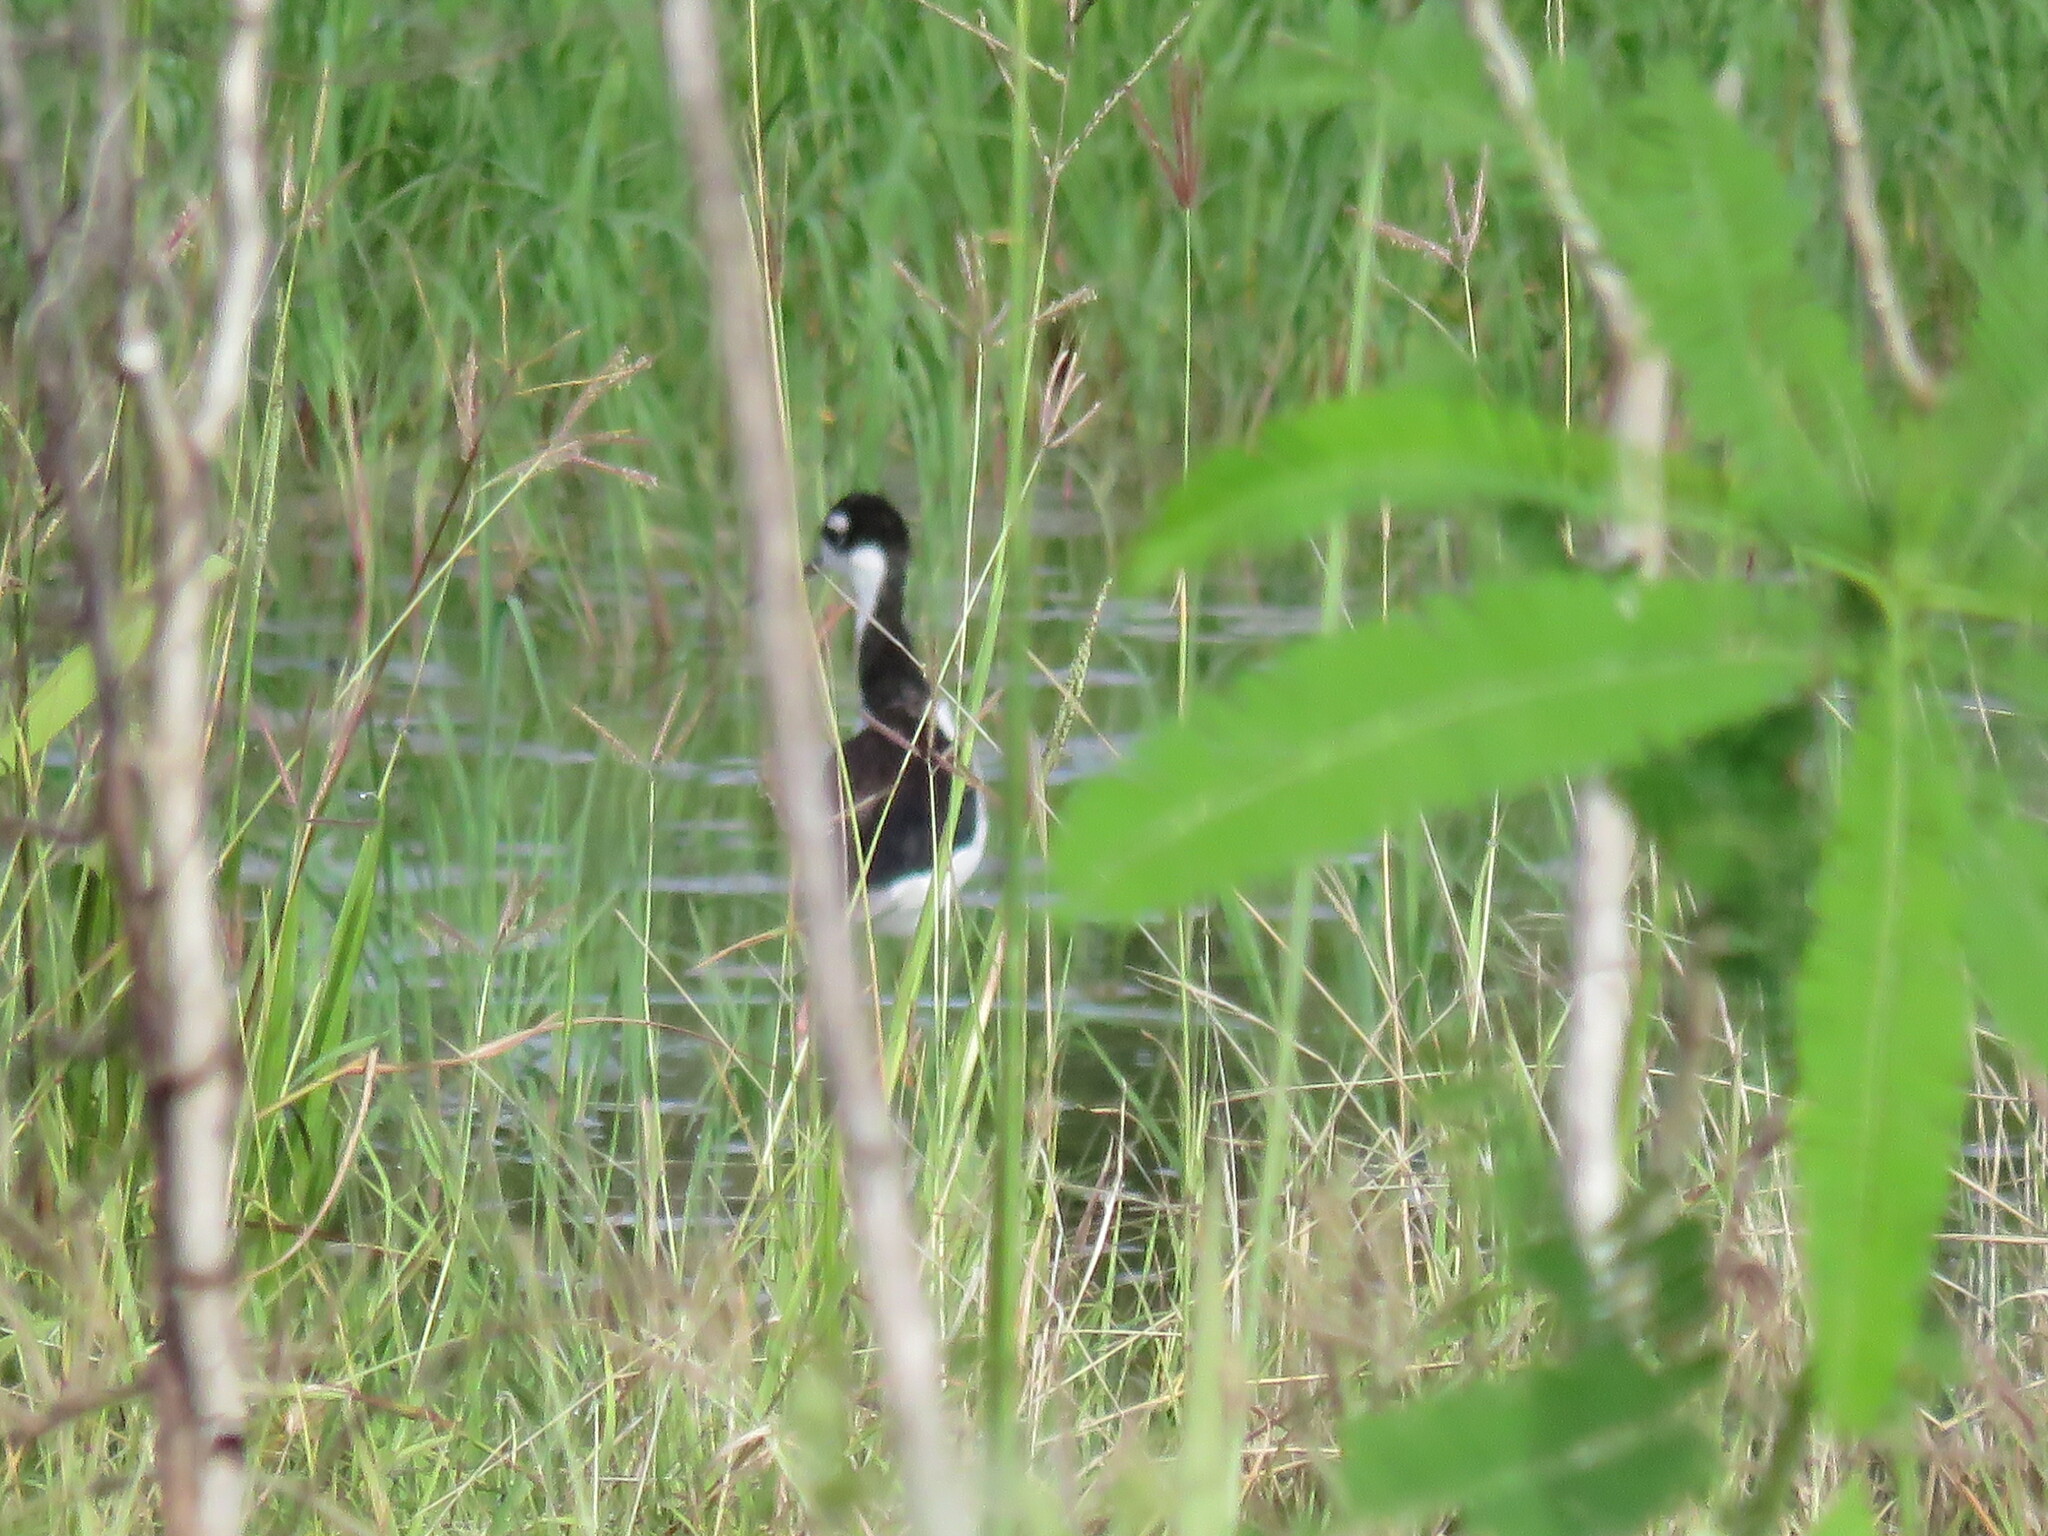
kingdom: Animalia
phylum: Chordata
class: Aves
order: Charadriiformes
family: Recurvirostridae
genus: Himantopus
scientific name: Himantopus mexicanus
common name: Black-necked stilt
